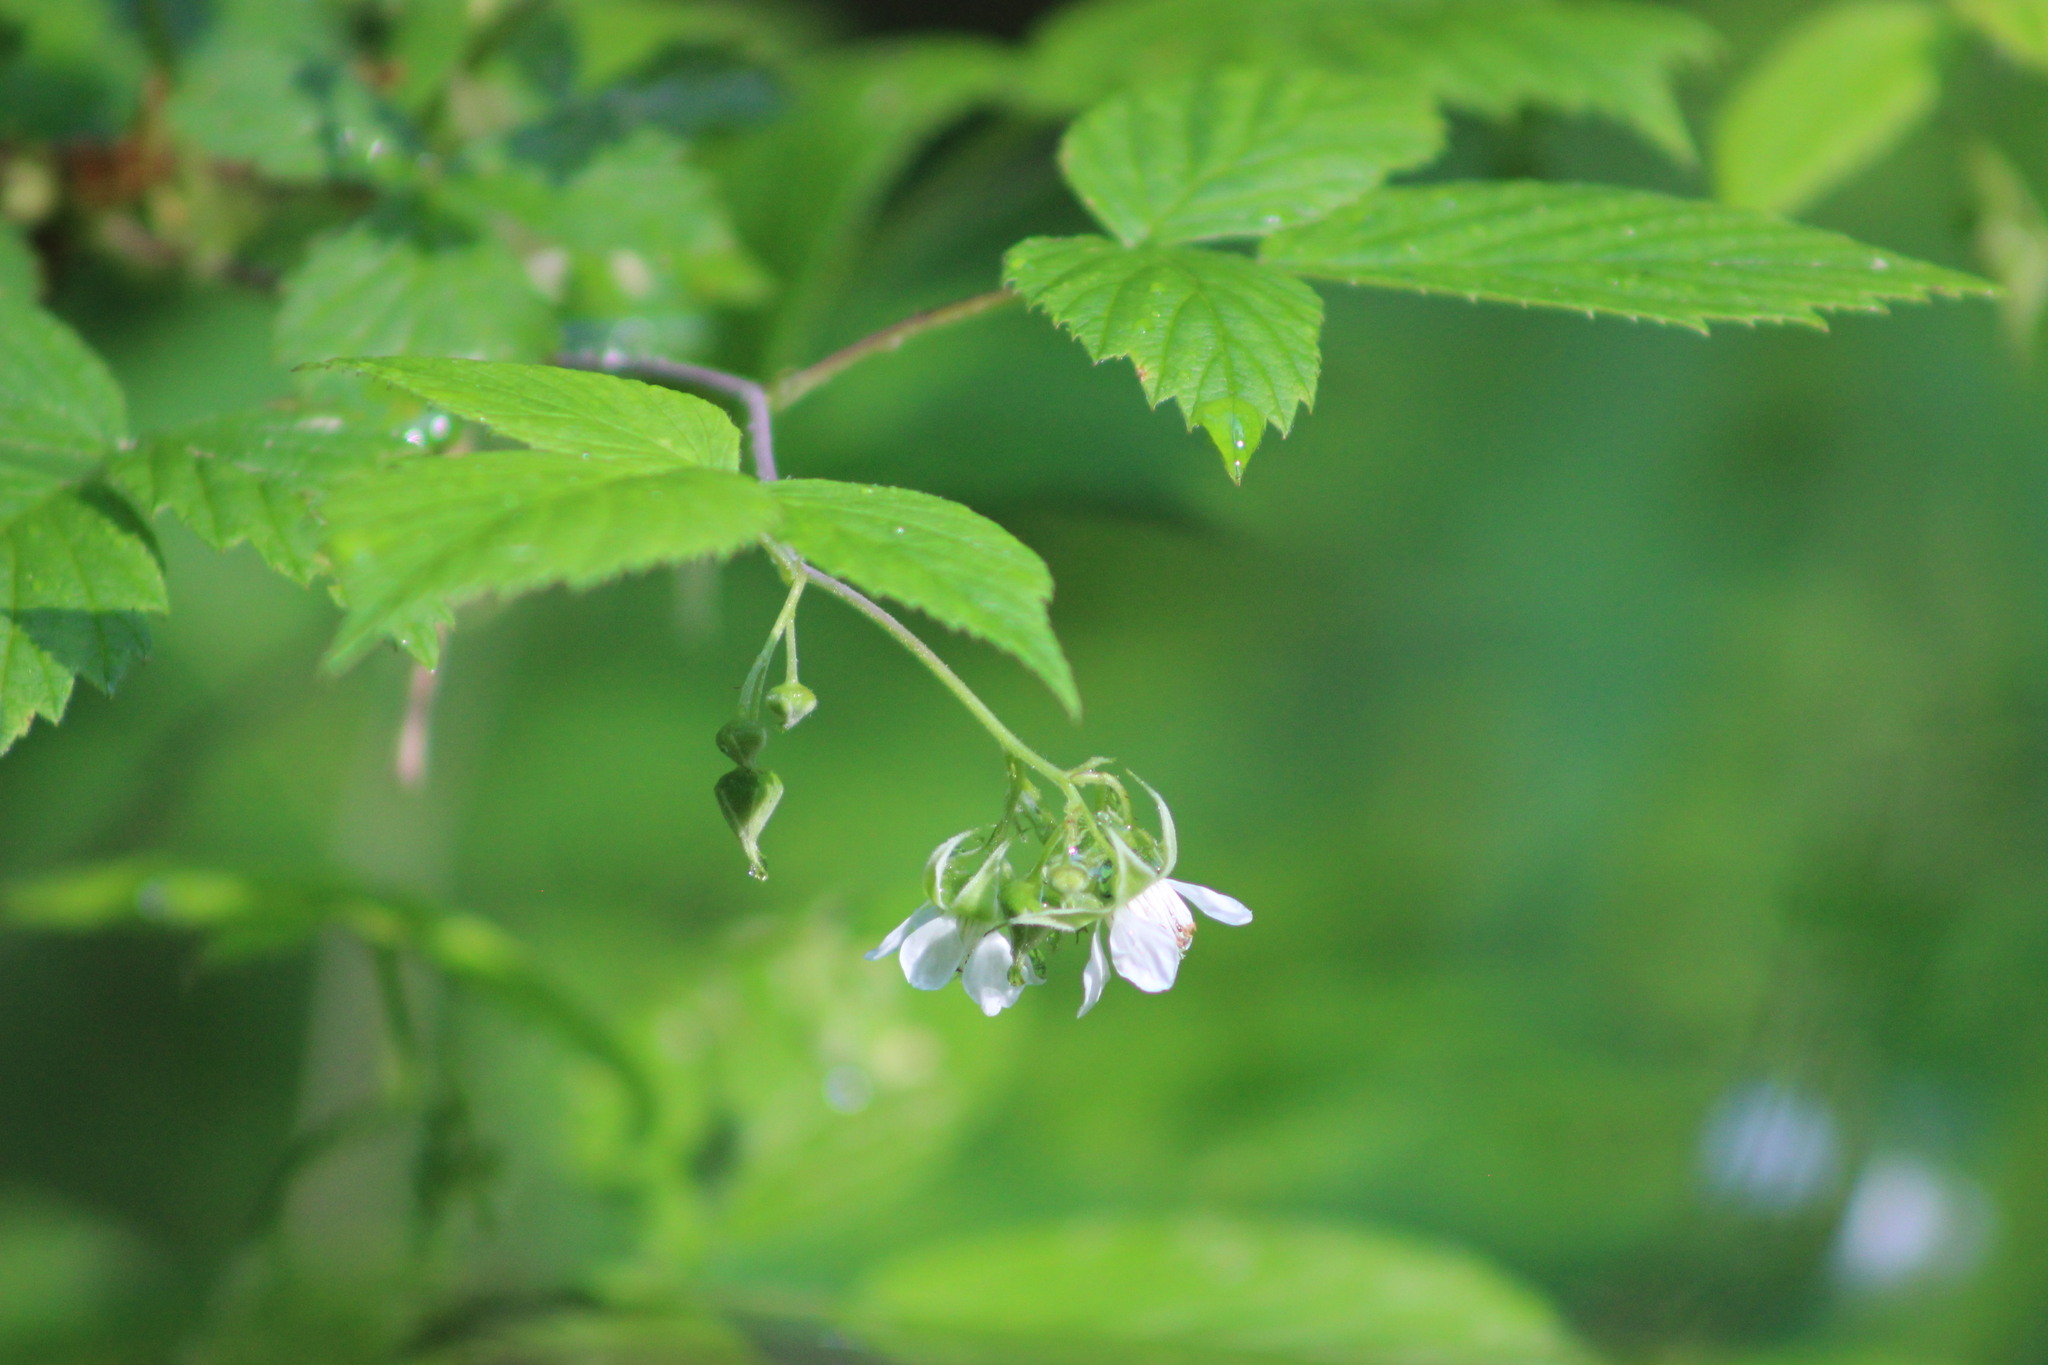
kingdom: Plantae
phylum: Tracheophyta
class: Magnoliopsida
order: Rosales
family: Rosaceae
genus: Rubus
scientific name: Rubus idaeus
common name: Raspberry
